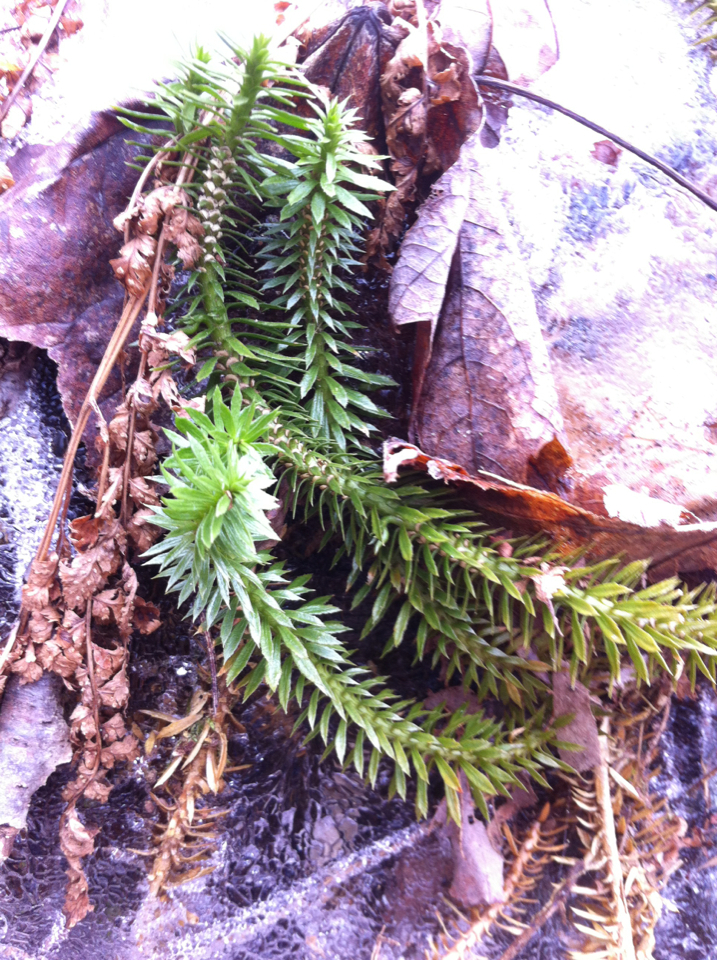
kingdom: Plantae
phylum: Tracheophyta
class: Lycopodiopsida
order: Lycopodiales
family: Lycopodiaceae
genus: Huperzia
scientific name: Huperzia lucidula
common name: Shining clubmoss
